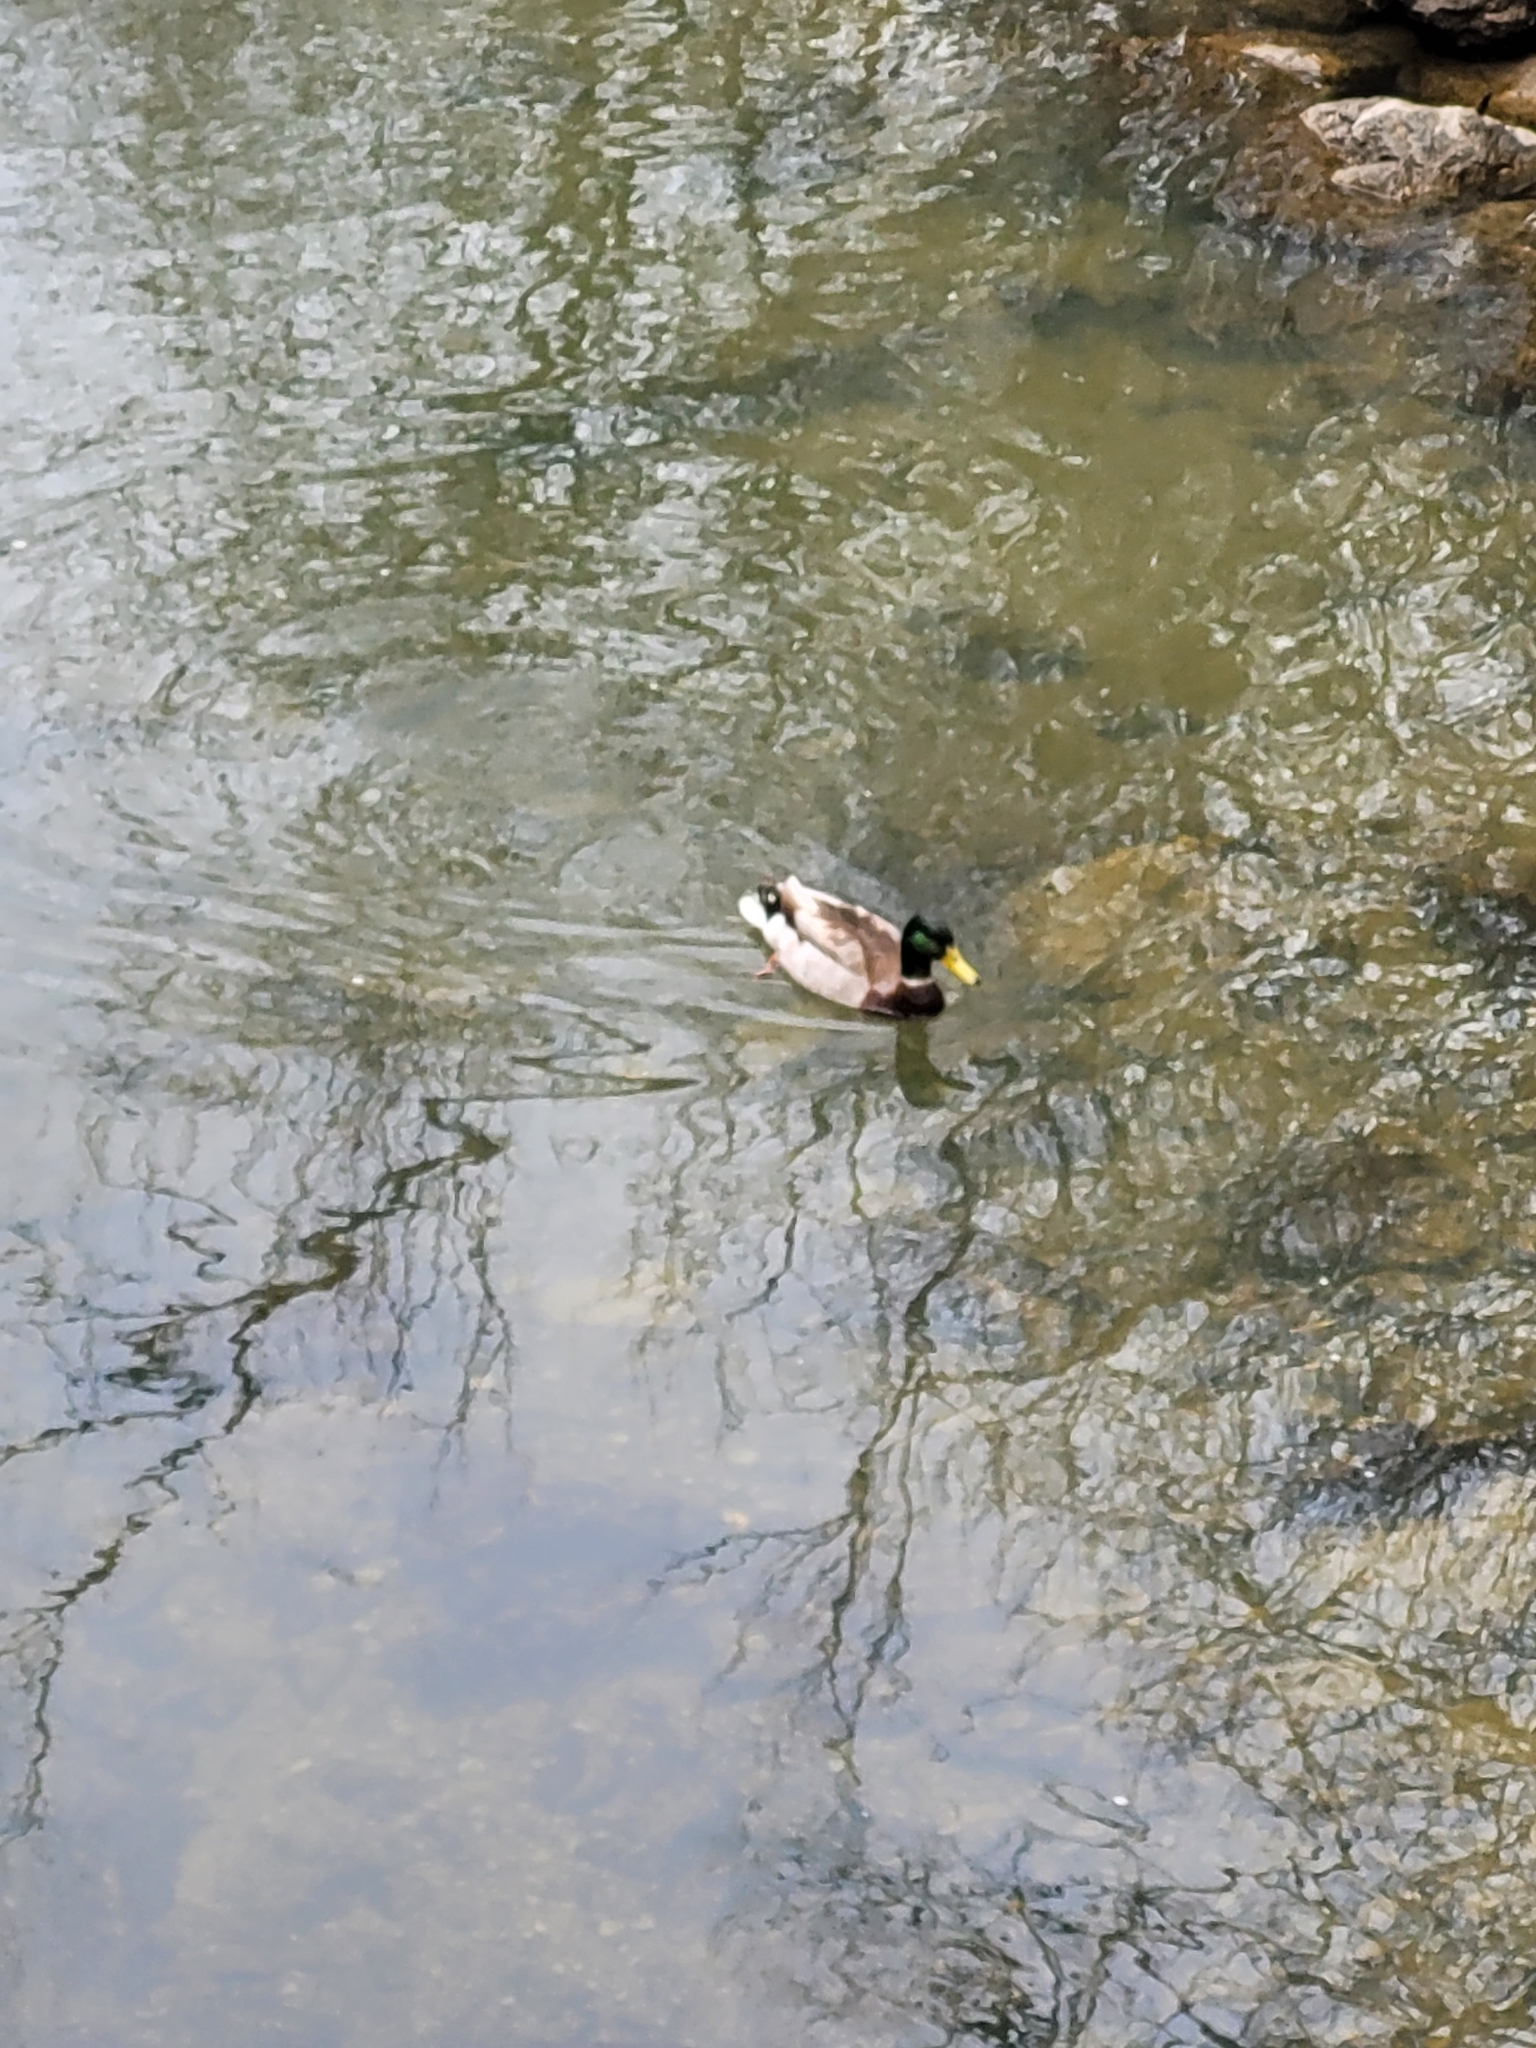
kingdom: Animalia
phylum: Chordata
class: Aves
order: Anseriformes
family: Anatidae
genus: Anas
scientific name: Anas platyrhynchos
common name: Mallard
